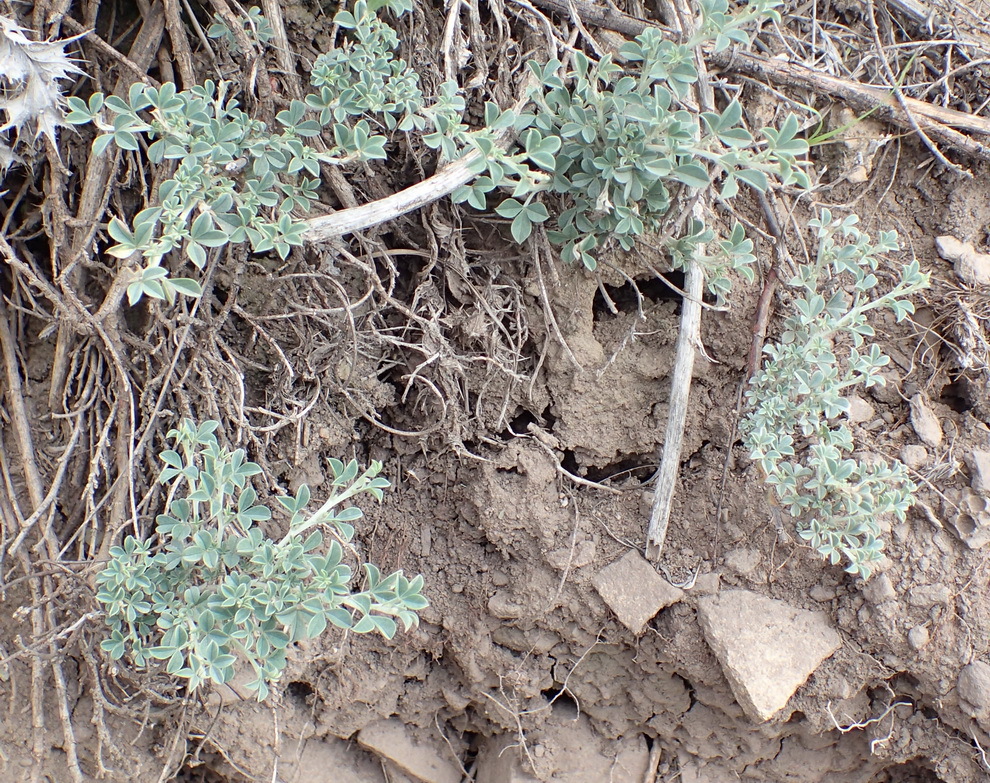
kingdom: Plantae
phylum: Tracheophyta
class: Magnoliopsida
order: Fabales
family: Fabaceae
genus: Indigofera
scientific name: Indigofera meyeriana
